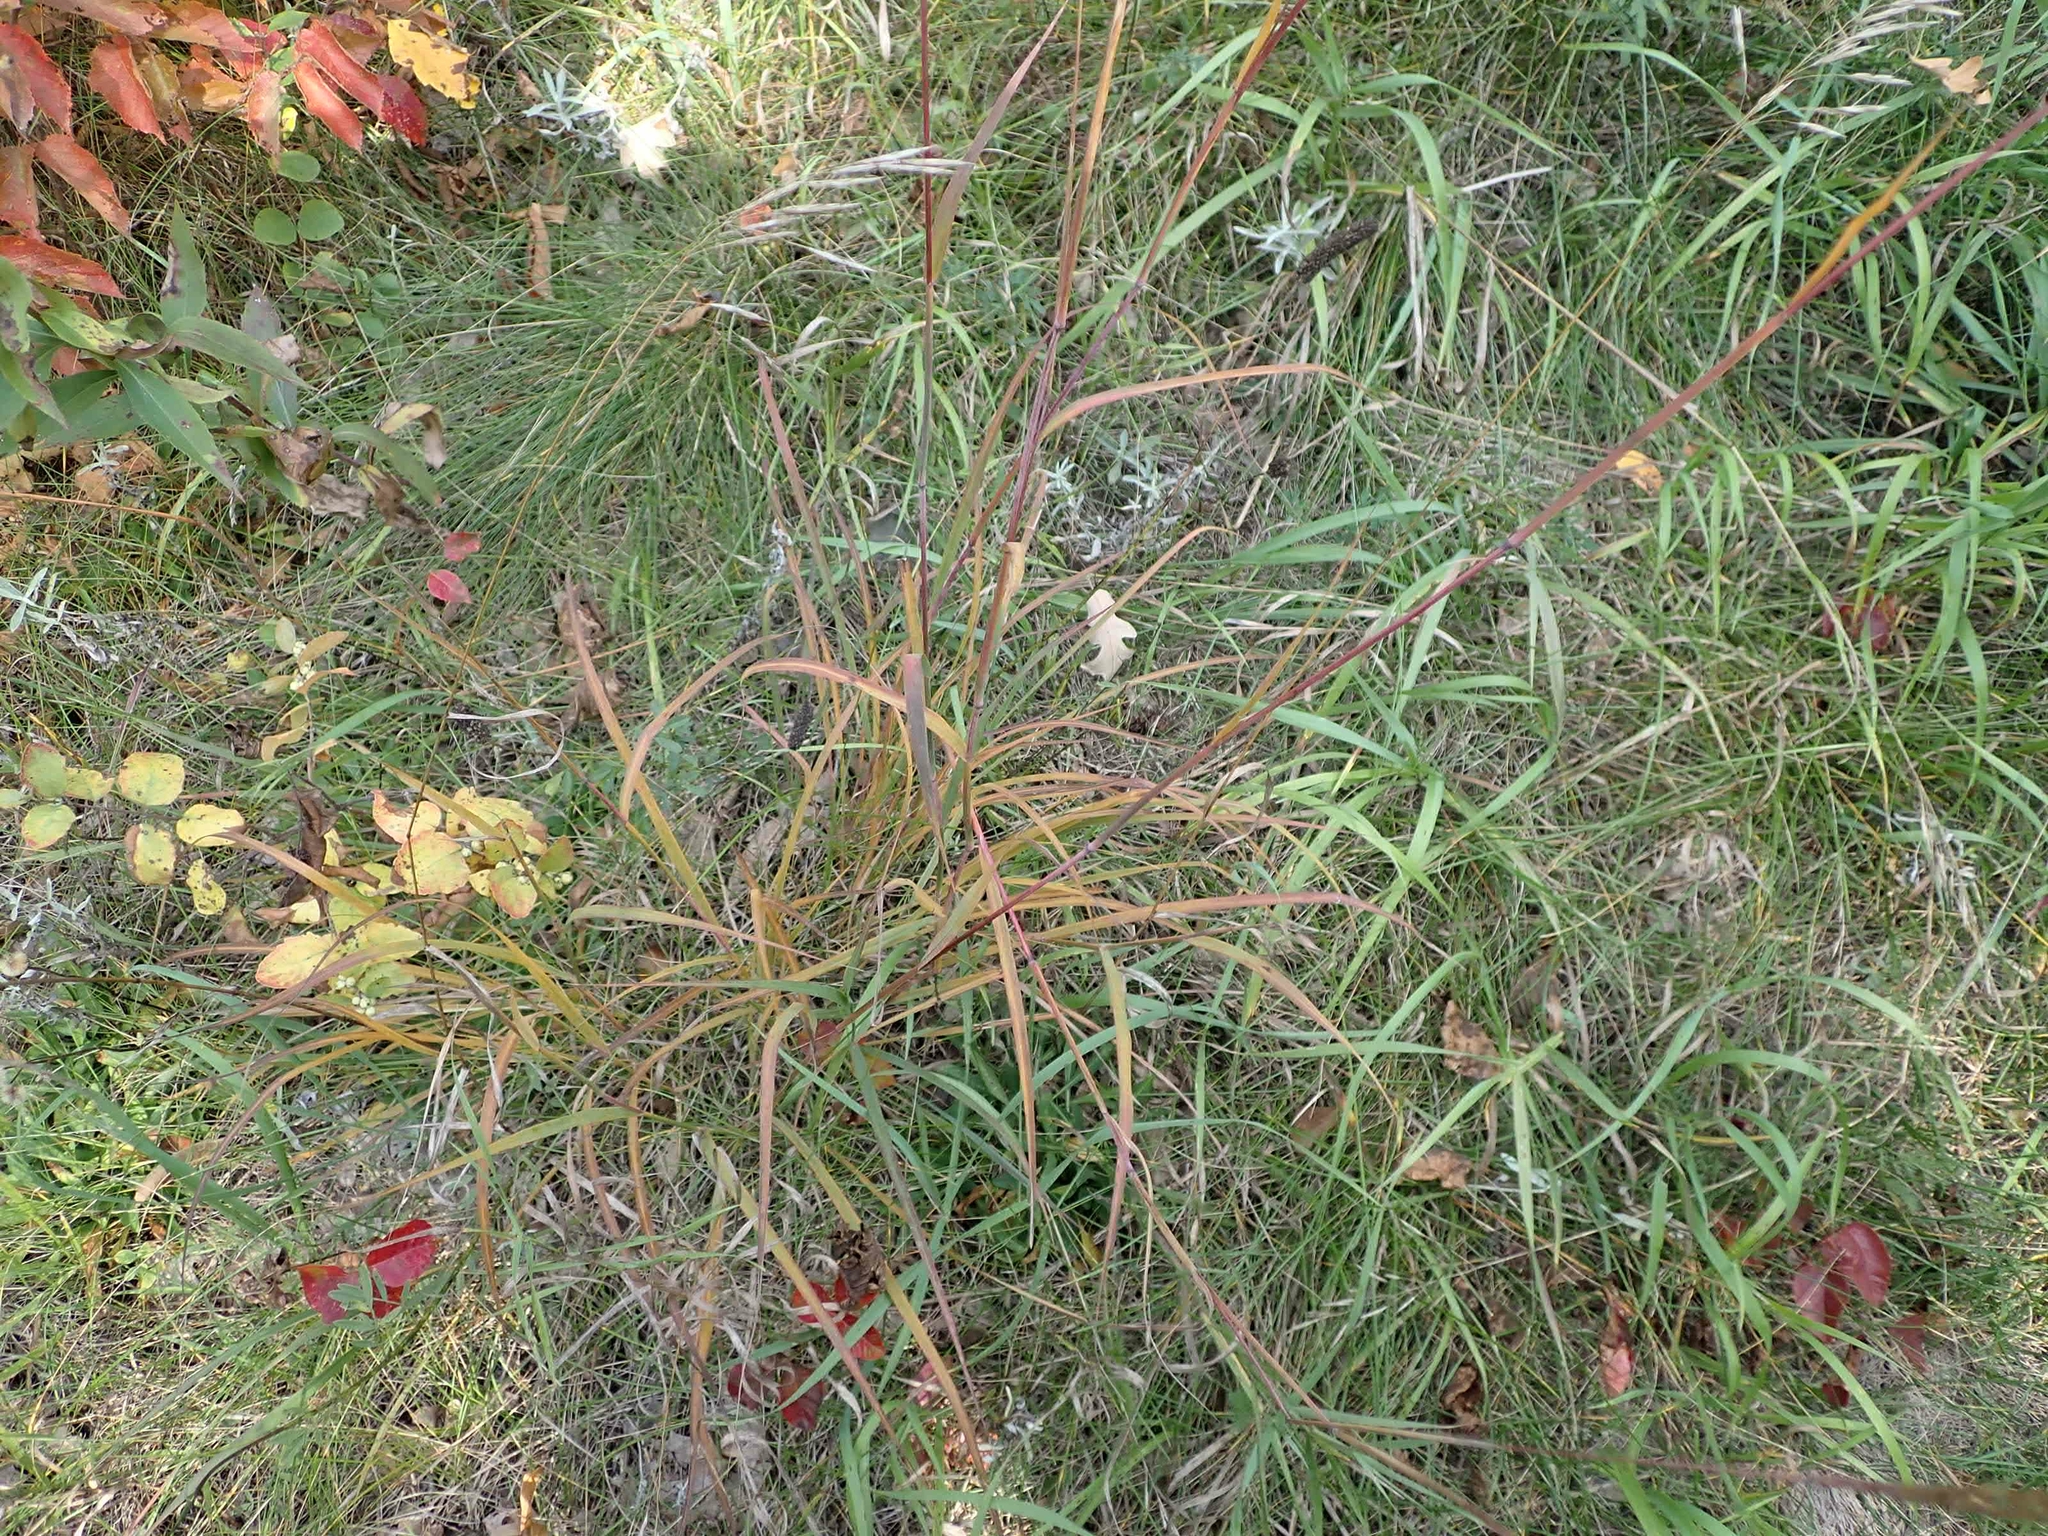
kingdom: Plantae
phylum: Tracheophyta
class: Liliopsida
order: Poales
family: Poaceae
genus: Andropogon
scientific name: Andropogon gerardi
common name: Big bluestem
